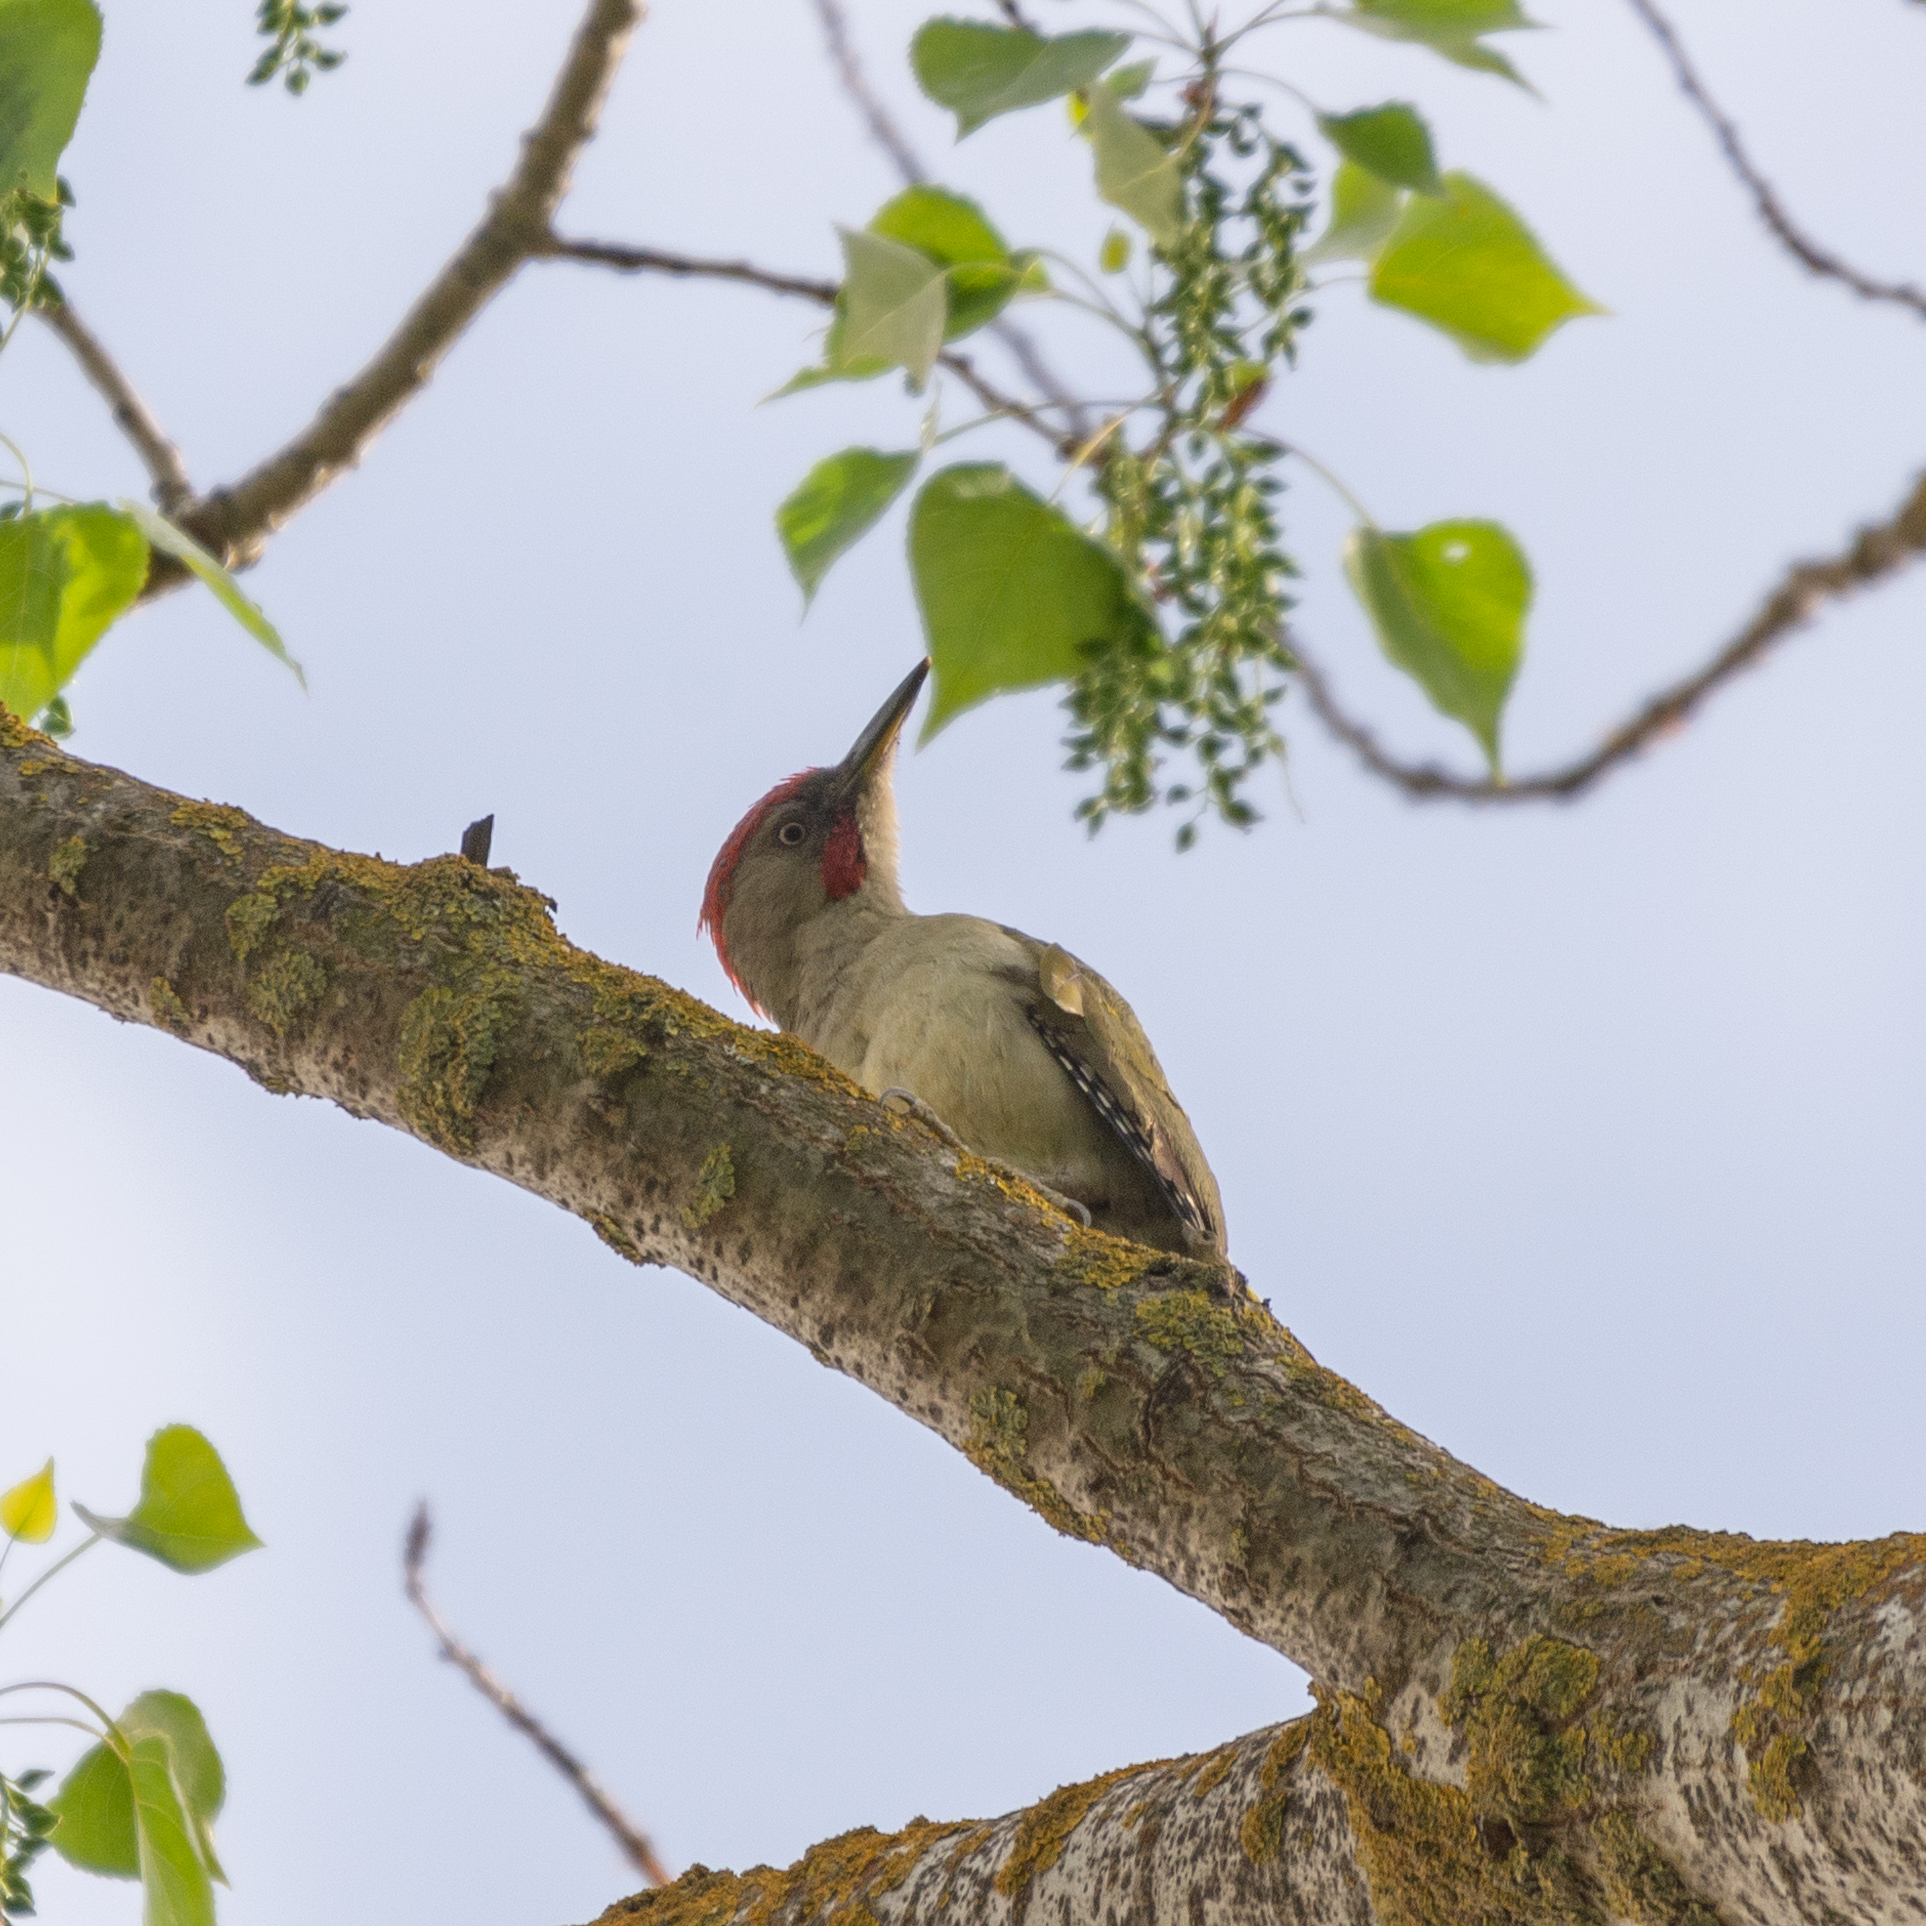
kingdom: Animalia
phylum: Chordata
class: Aves
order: Piciformes
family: Picidae
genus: Picus
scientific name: Picus sharpei
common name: Iberian green woodpecker
